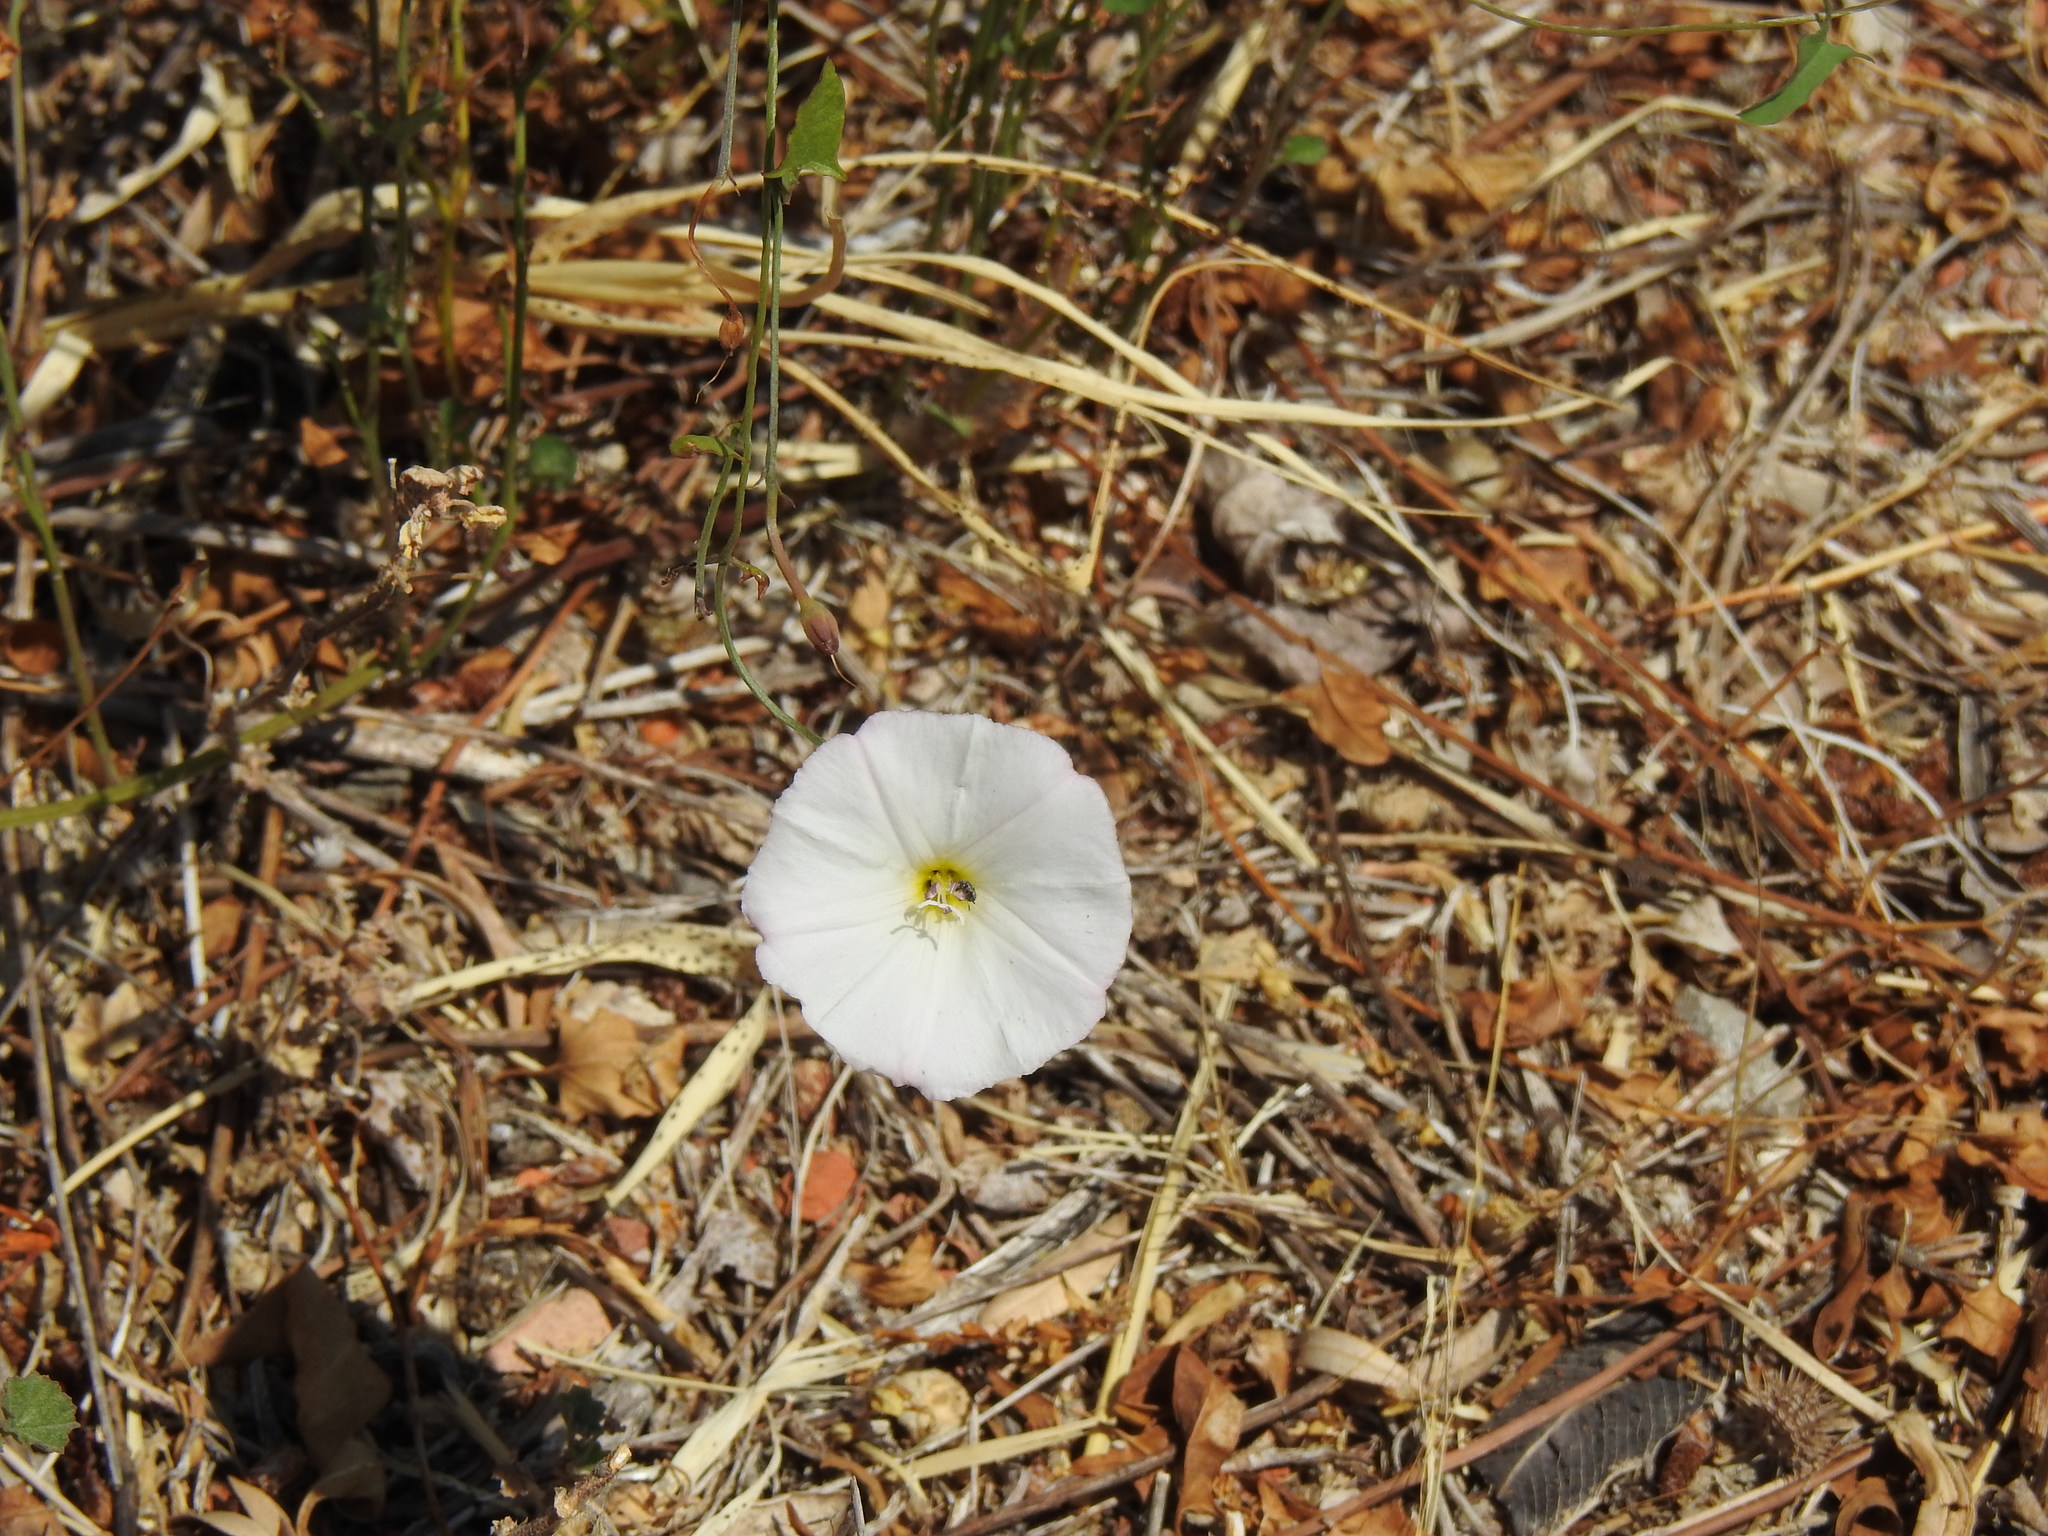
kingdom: Plantae
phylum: Tracheophyta
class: Magnoliopsida
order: Solanales
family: Convolvulaceae
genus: Convolvulus
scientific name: Convolvulus arvensis
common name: Field bindweed
